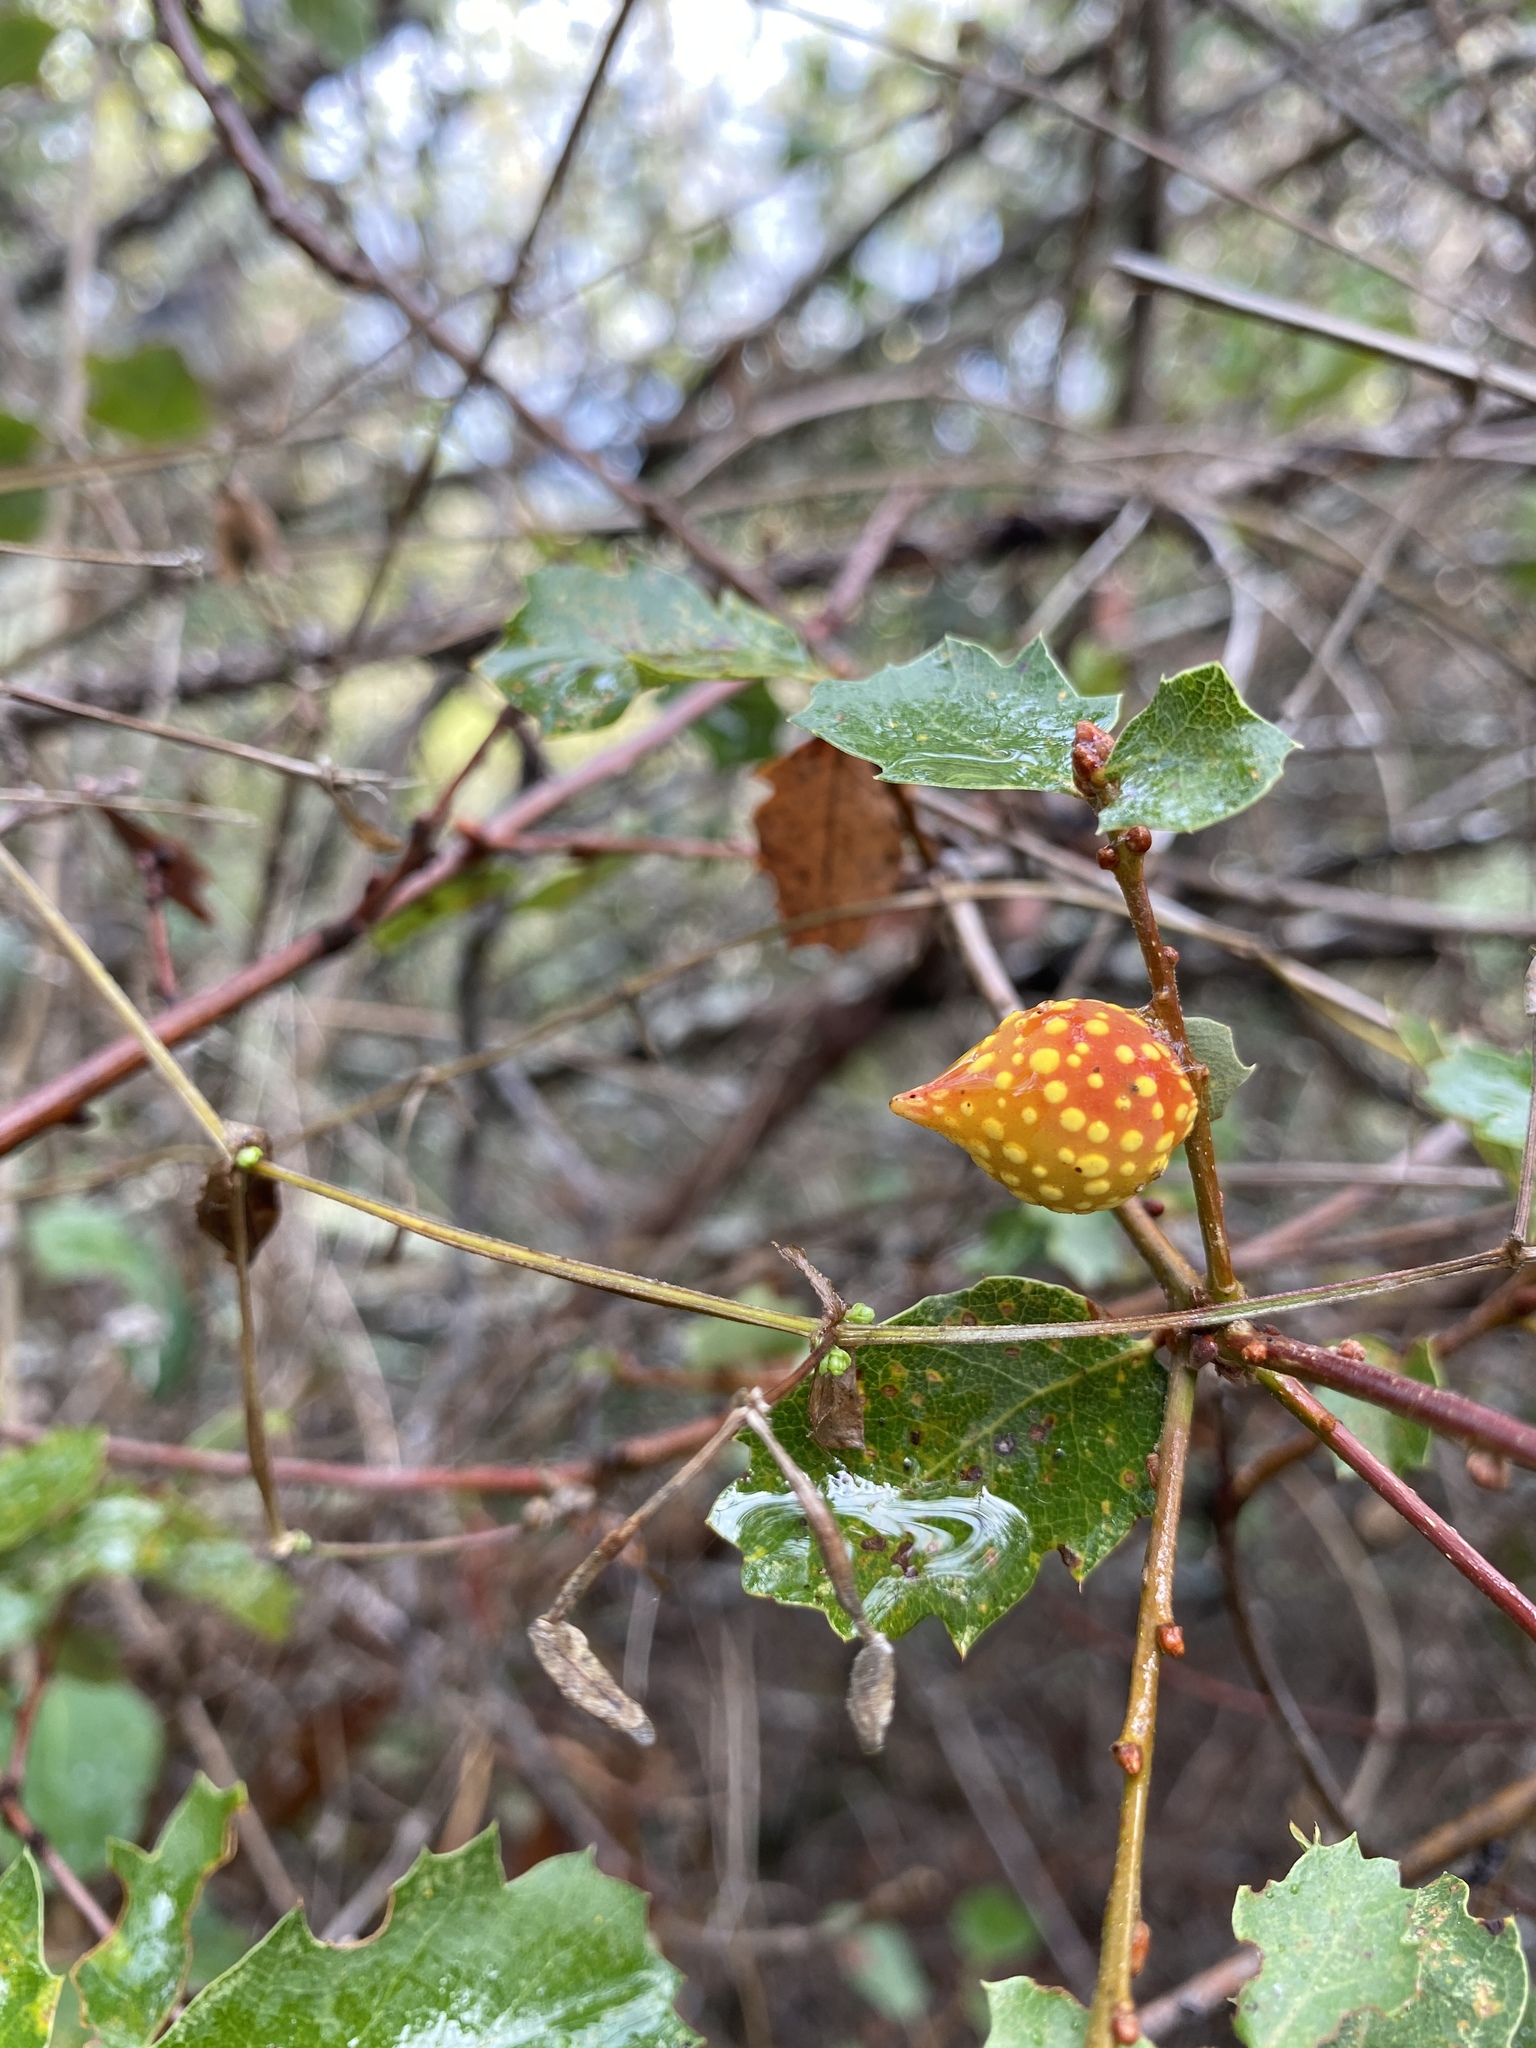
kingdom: Animalia
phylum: Arthropoda
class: Insecta
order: Hymenoptera
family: Cynipidae
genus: Burnettweldia
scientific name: Burnettweldia
